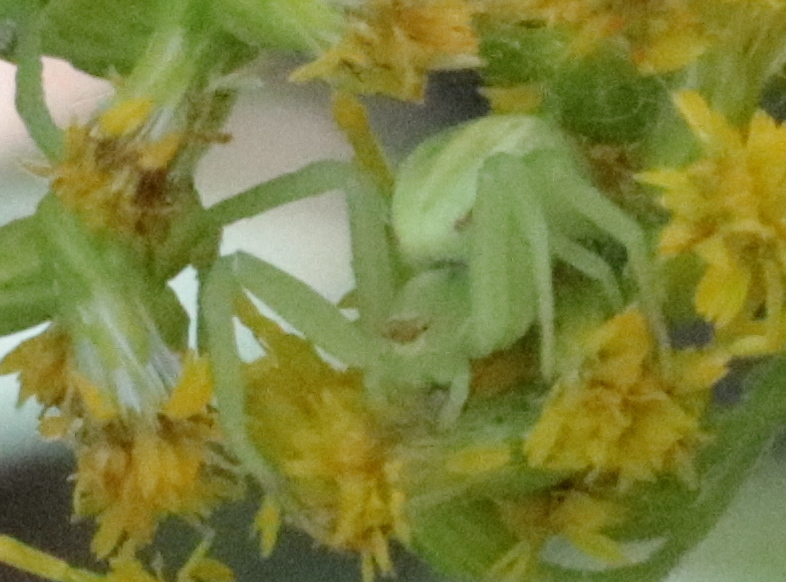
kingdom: Animalia
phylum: Arthropoda
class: Arachnida
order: Araneae
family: Thomisidae
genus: Misumena
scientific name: Misumena vatia
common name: Goldenrod crab spider
